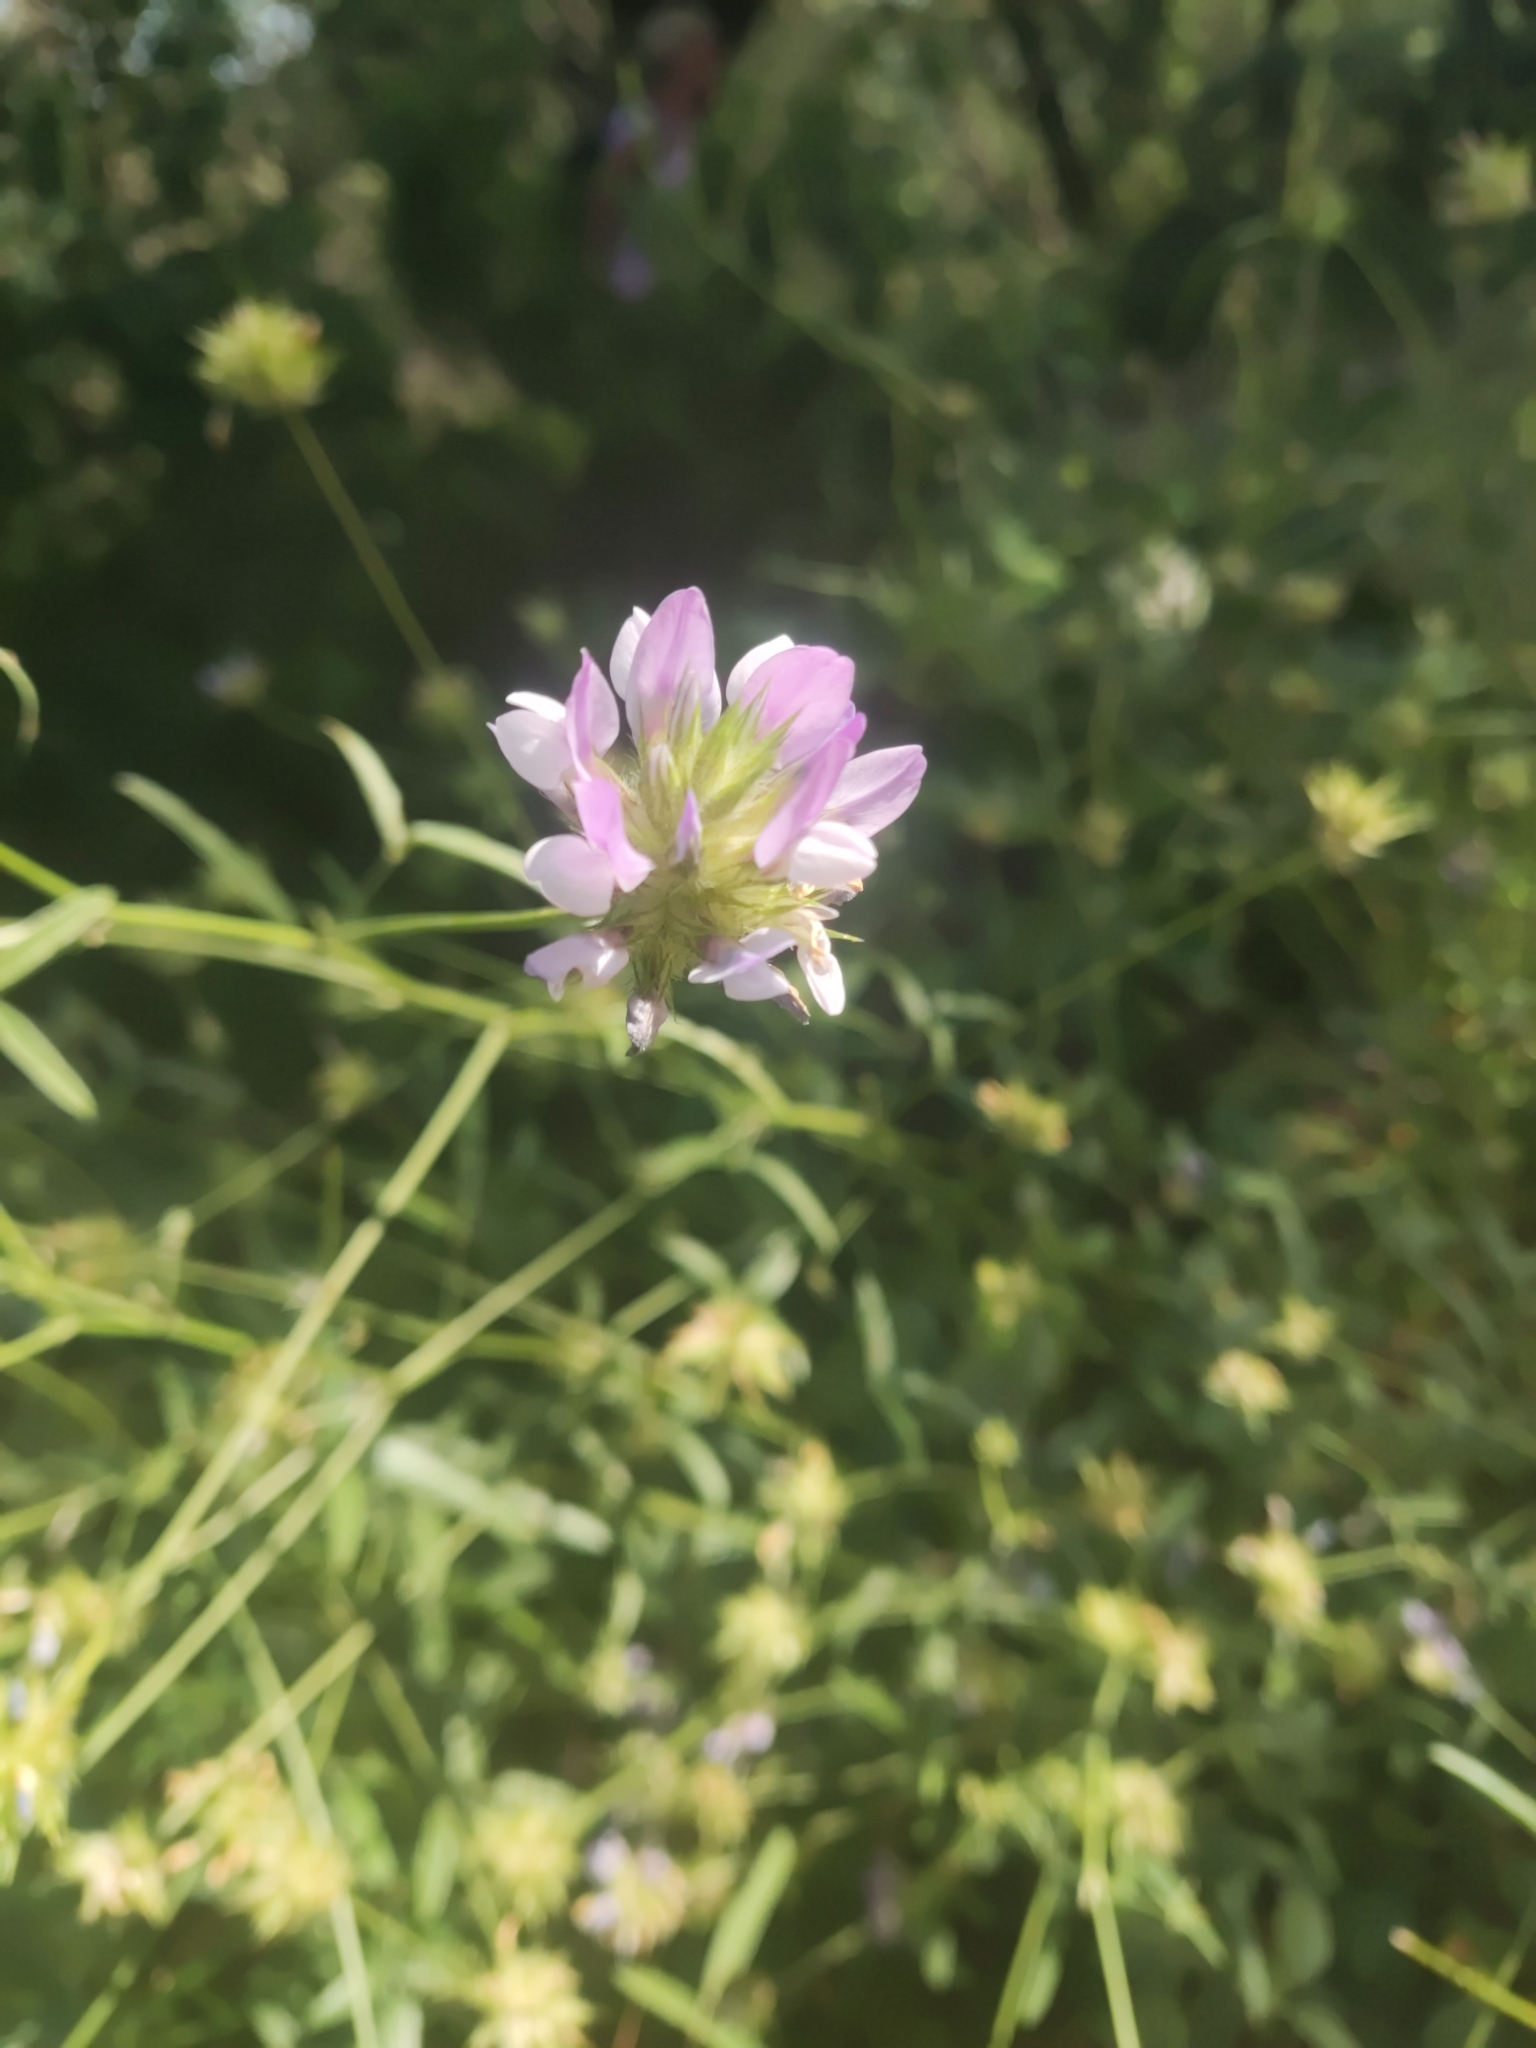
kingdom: Plantae
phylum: Tracheophyta
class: Magnoliopsida
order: Fabales
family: Fabaceae
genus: Bituminaria
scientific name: Bituminaria bituminosa
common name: Arabian pea
